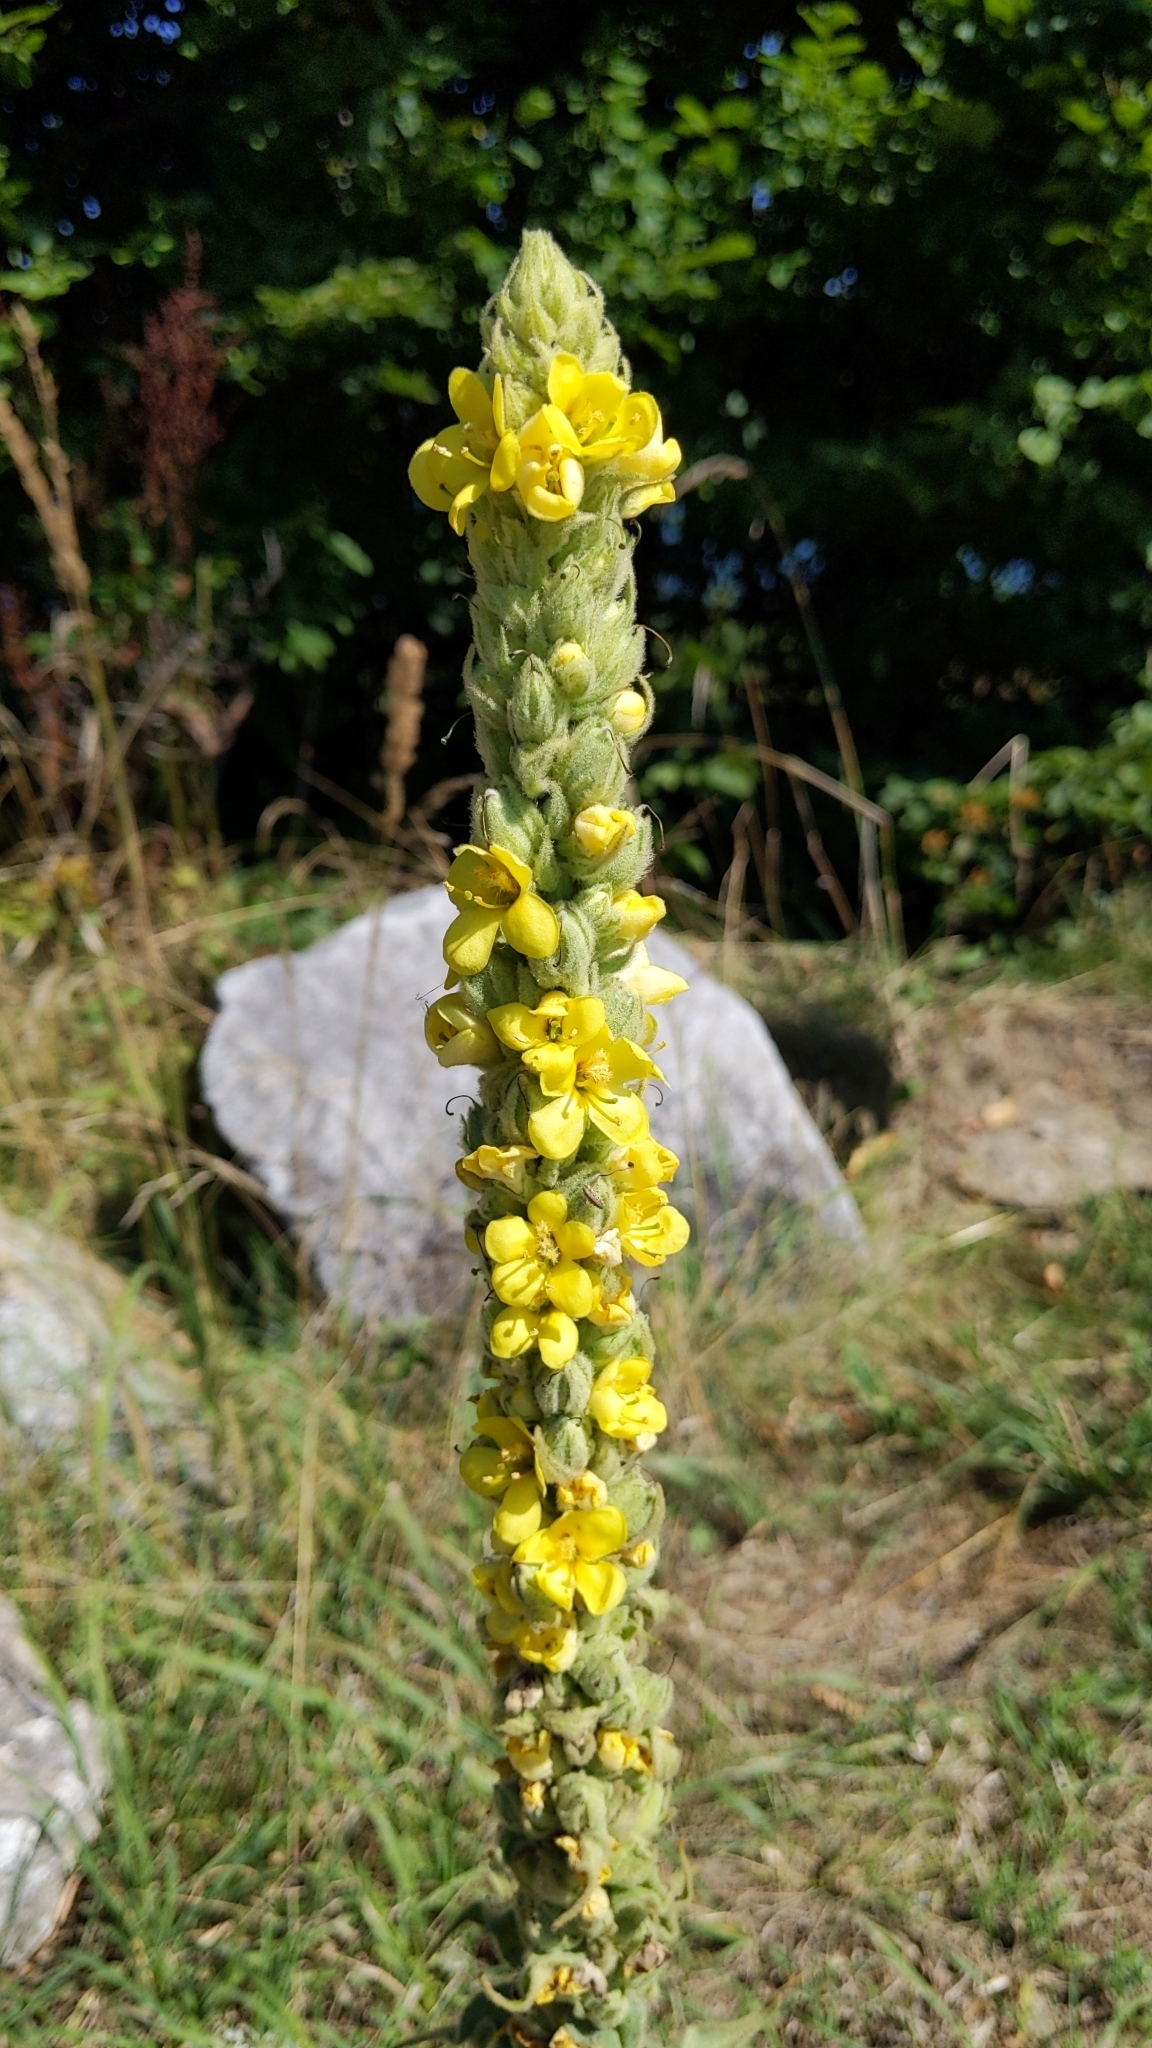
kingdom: Plantae
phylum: Tracheophyta
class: Magnoliopsida
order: Lamiales
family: Scrophulariaceae
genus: Verbascum
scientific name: Verbascum phlomoides
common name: Orange mullein
